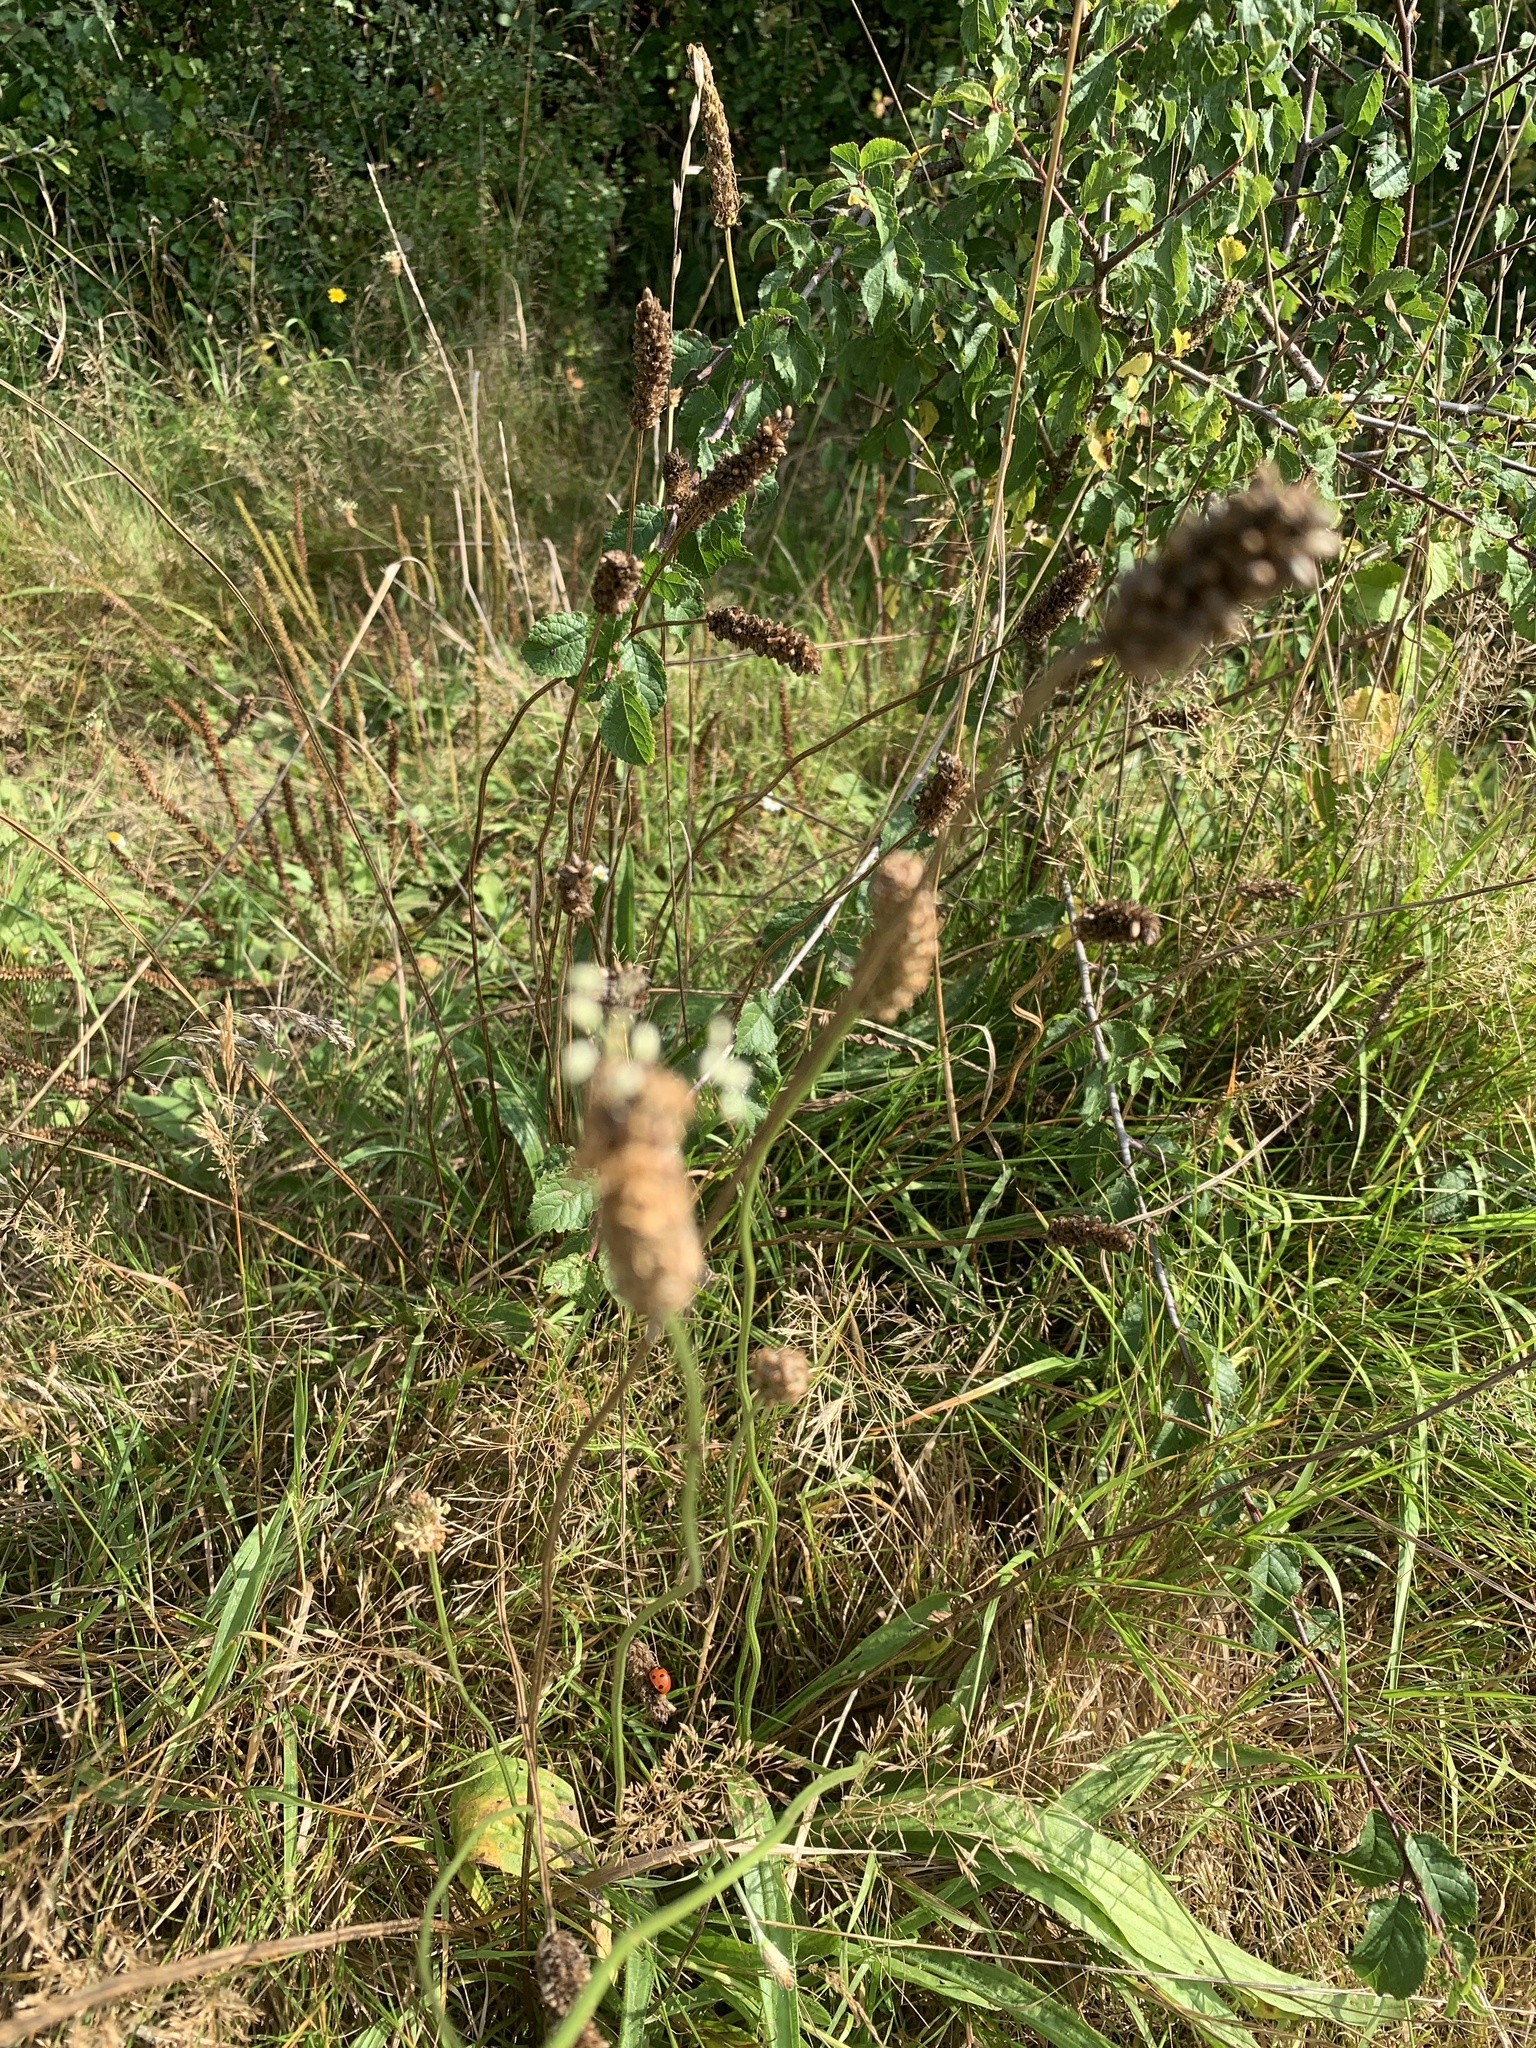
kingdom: Plantae
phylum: Tracheophyta
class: Magnoliopsida
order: Lamiales
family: Plantaginaceae
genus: Plantago
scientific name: Plantago lanceolata
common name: Ribwort plantain
